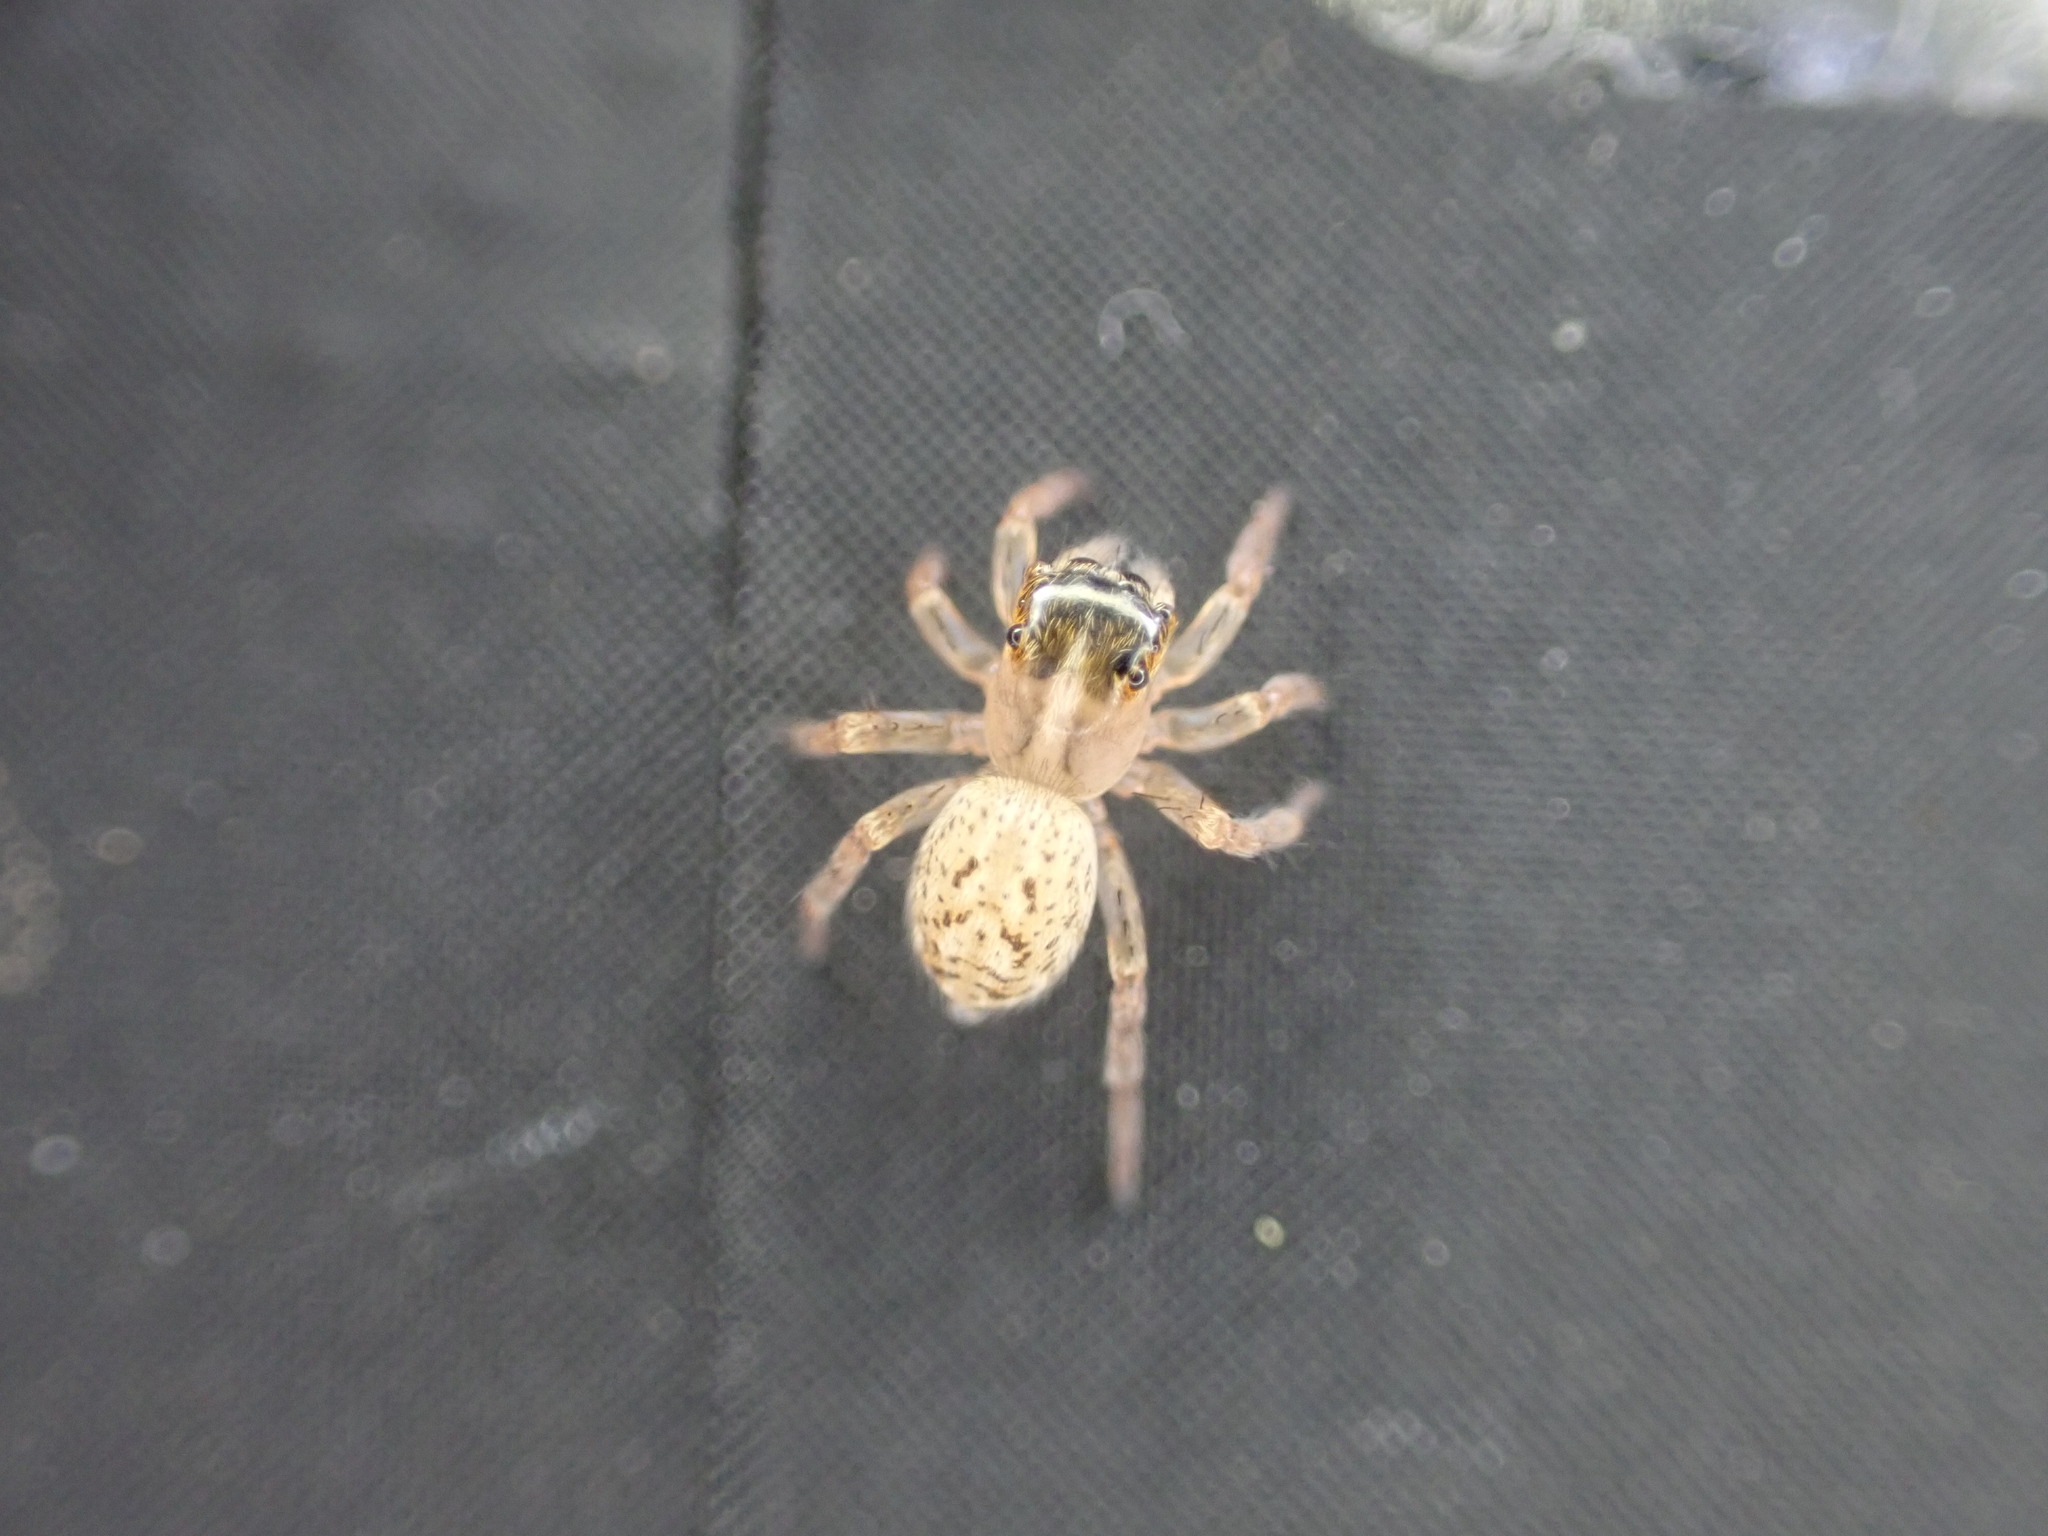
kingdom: Animalia
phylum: Arthropoda
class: Arachnida
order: Araneae
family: Salticidae
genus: Saitis
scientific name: Saitis barbipes
